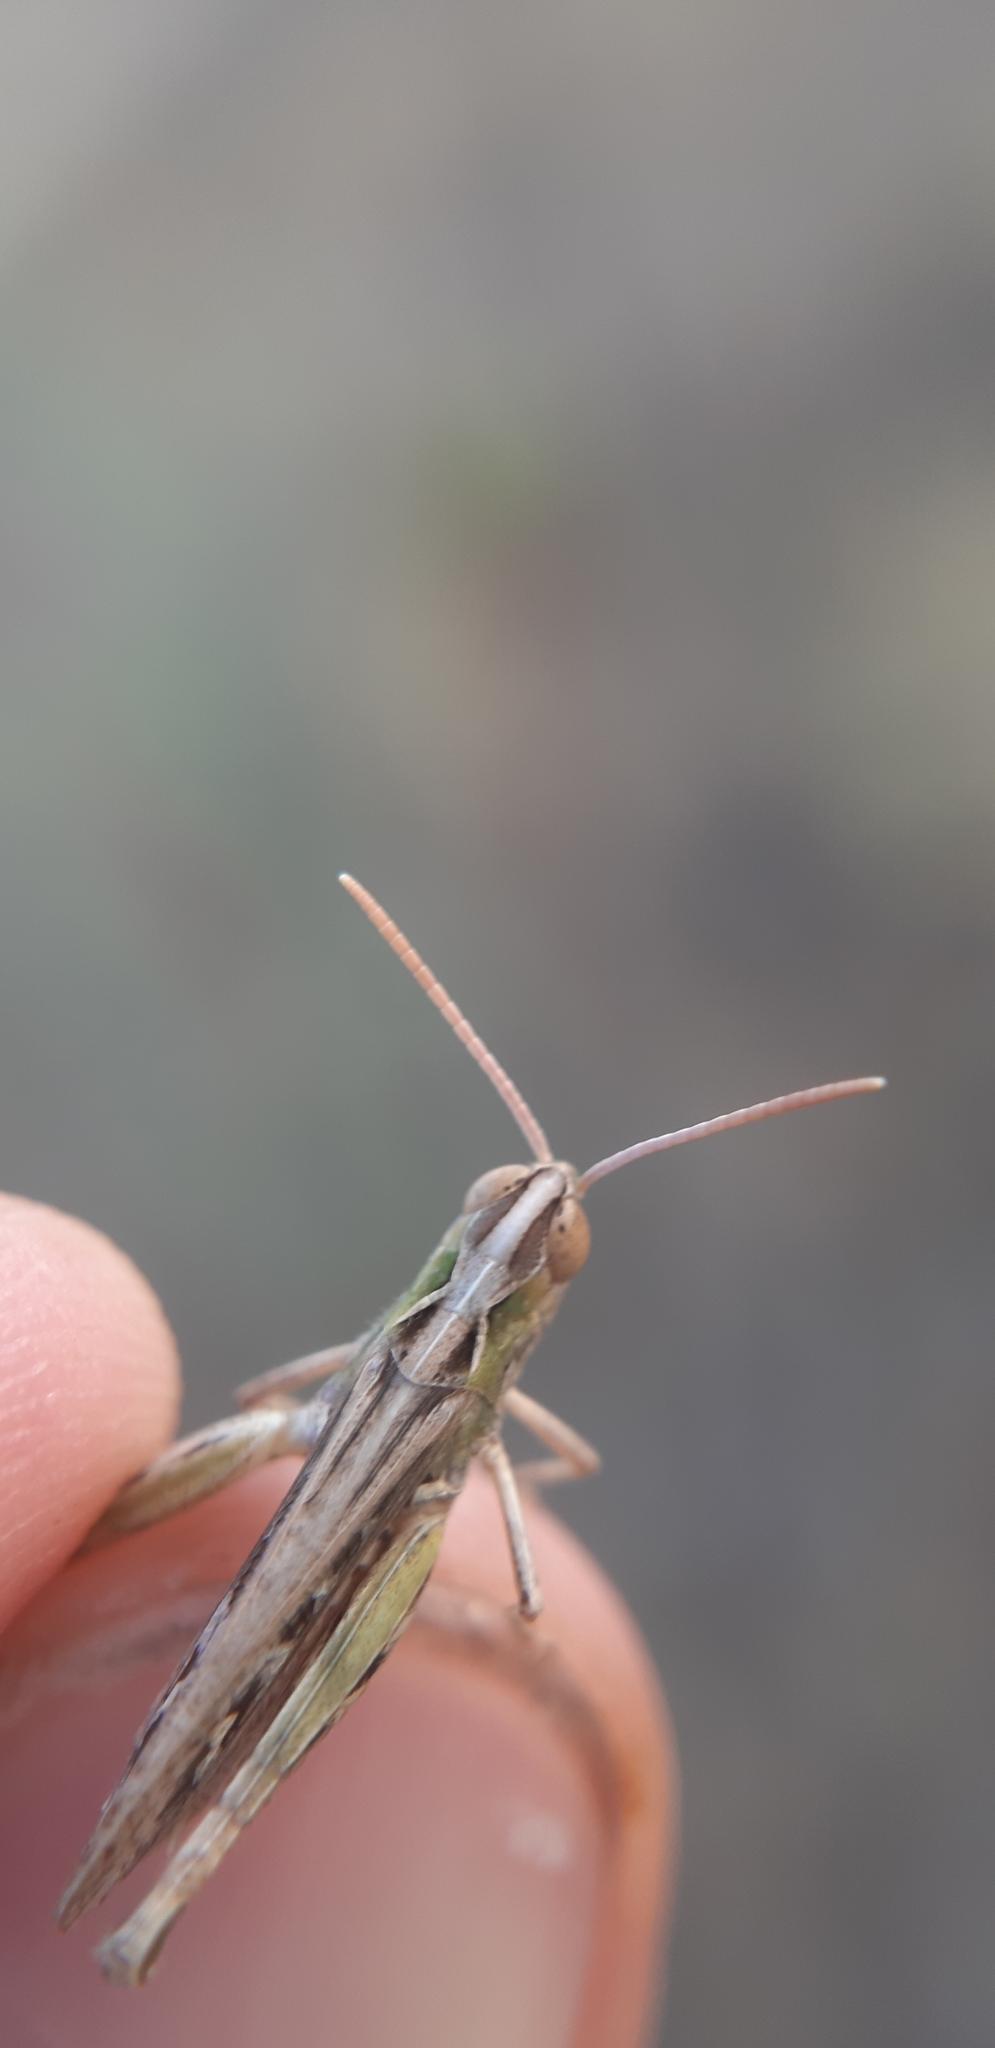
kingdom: Animalia
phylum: Arthropoda
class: Insecta
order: Orthoptera
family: Acrididae
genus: Omocestus
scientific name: Omocestus petraeus
